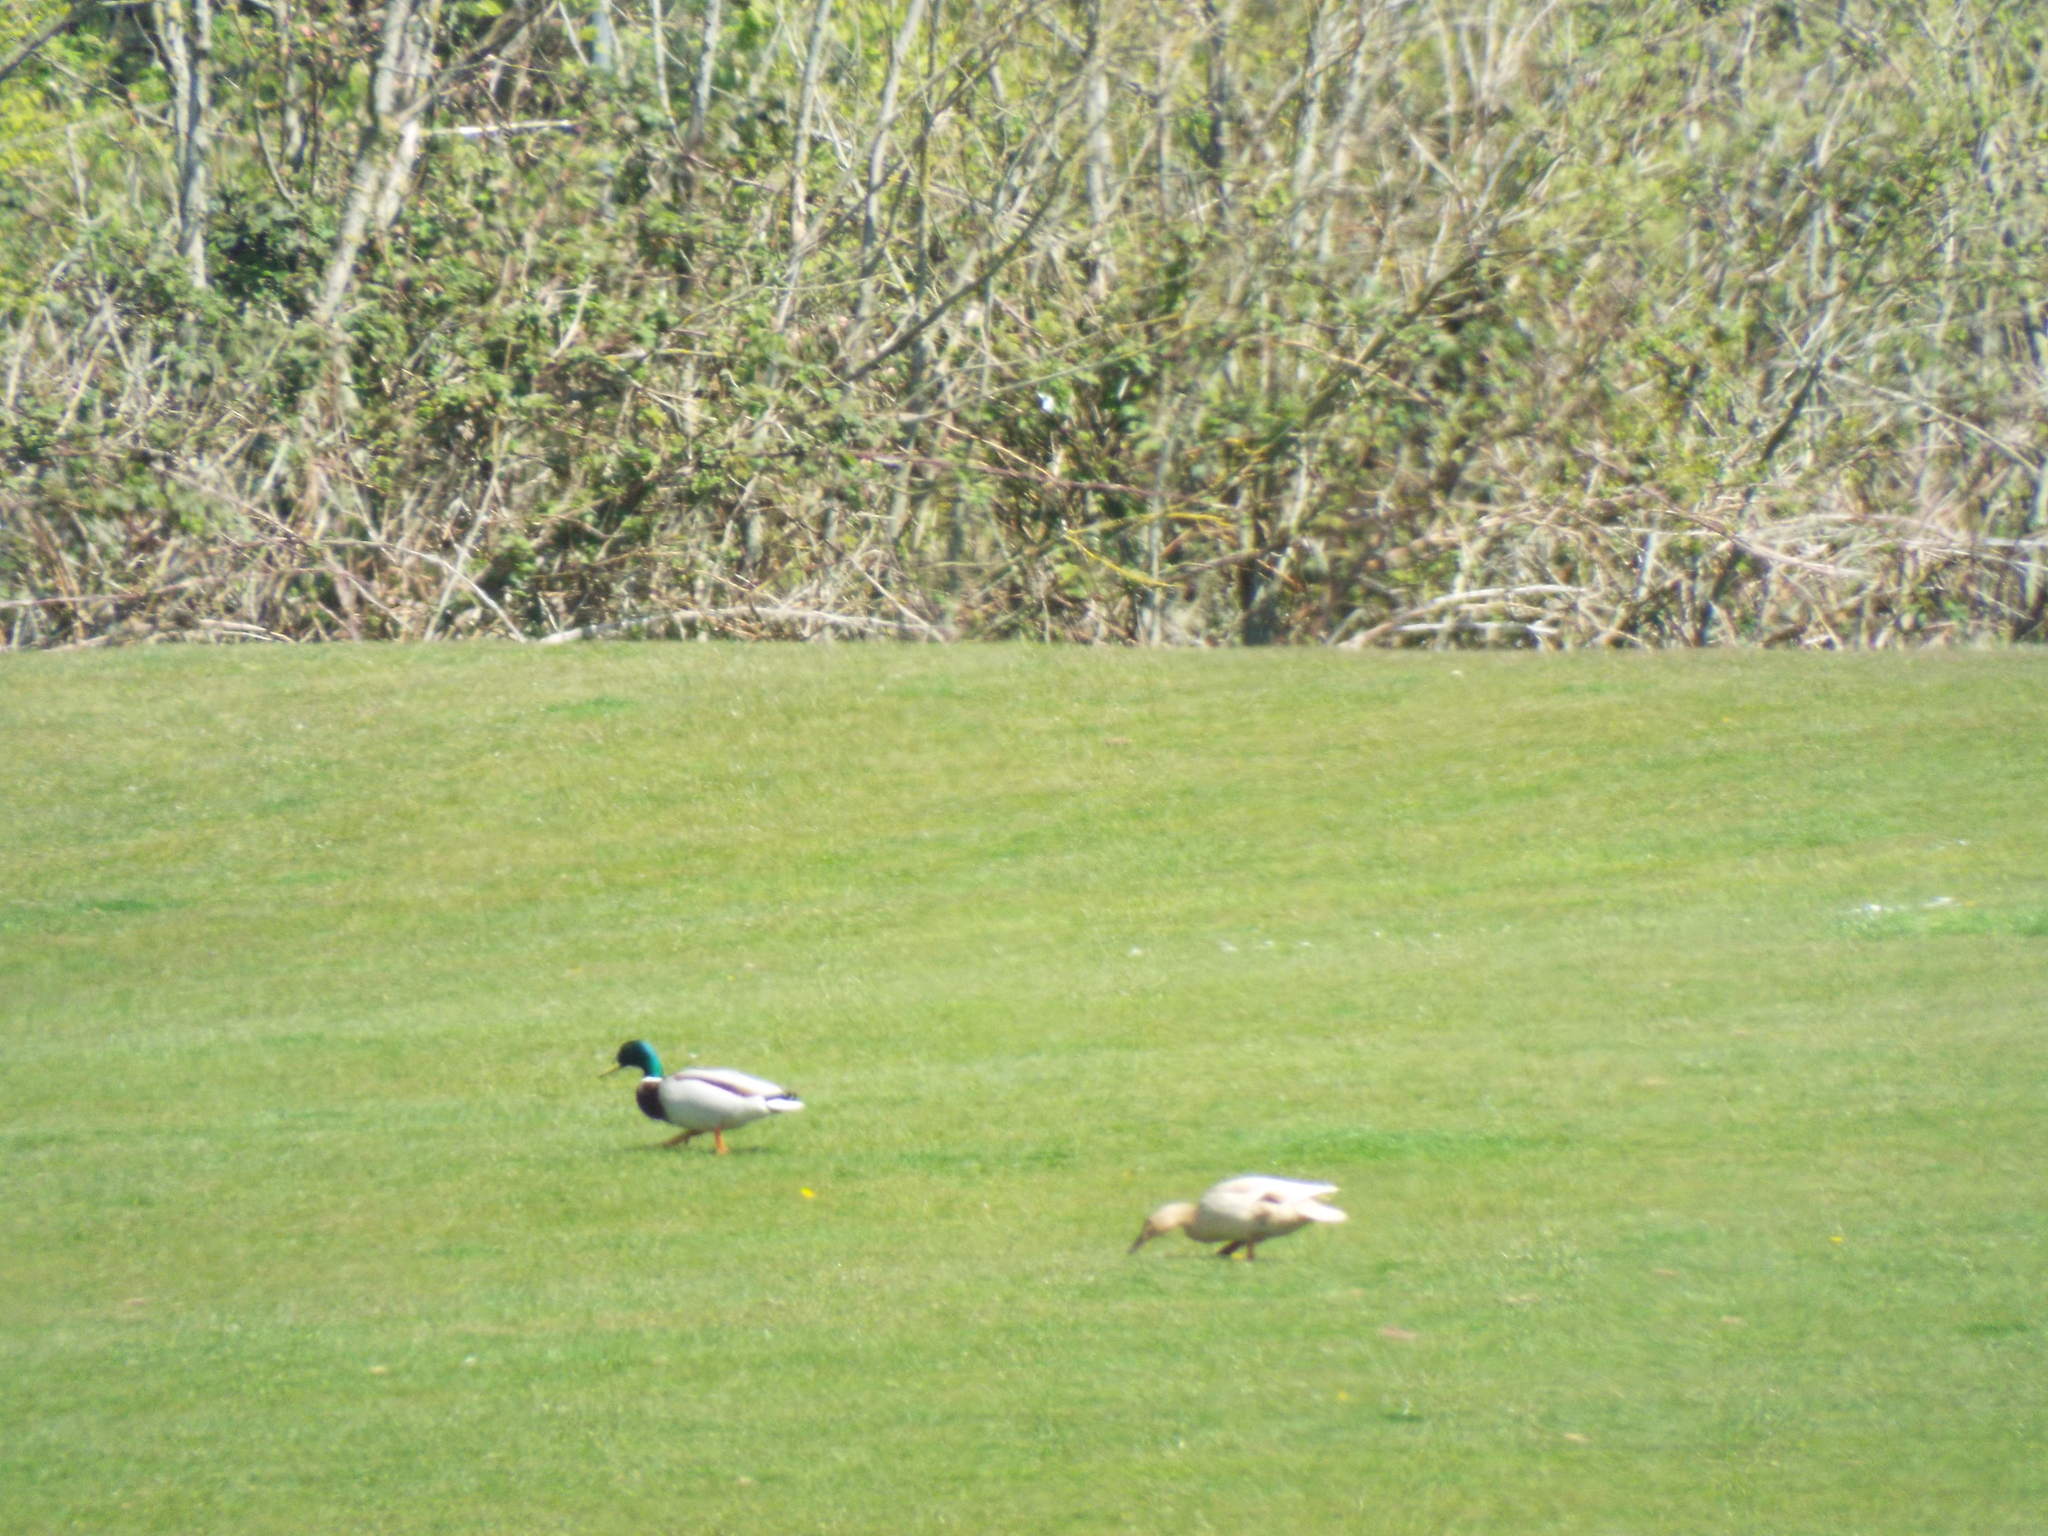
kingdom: Animalia
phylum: Chordata
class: Aves
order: Anseriformes
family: Anatidae
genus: Anas
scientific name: Anas platyrhynchos
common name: Mallard
